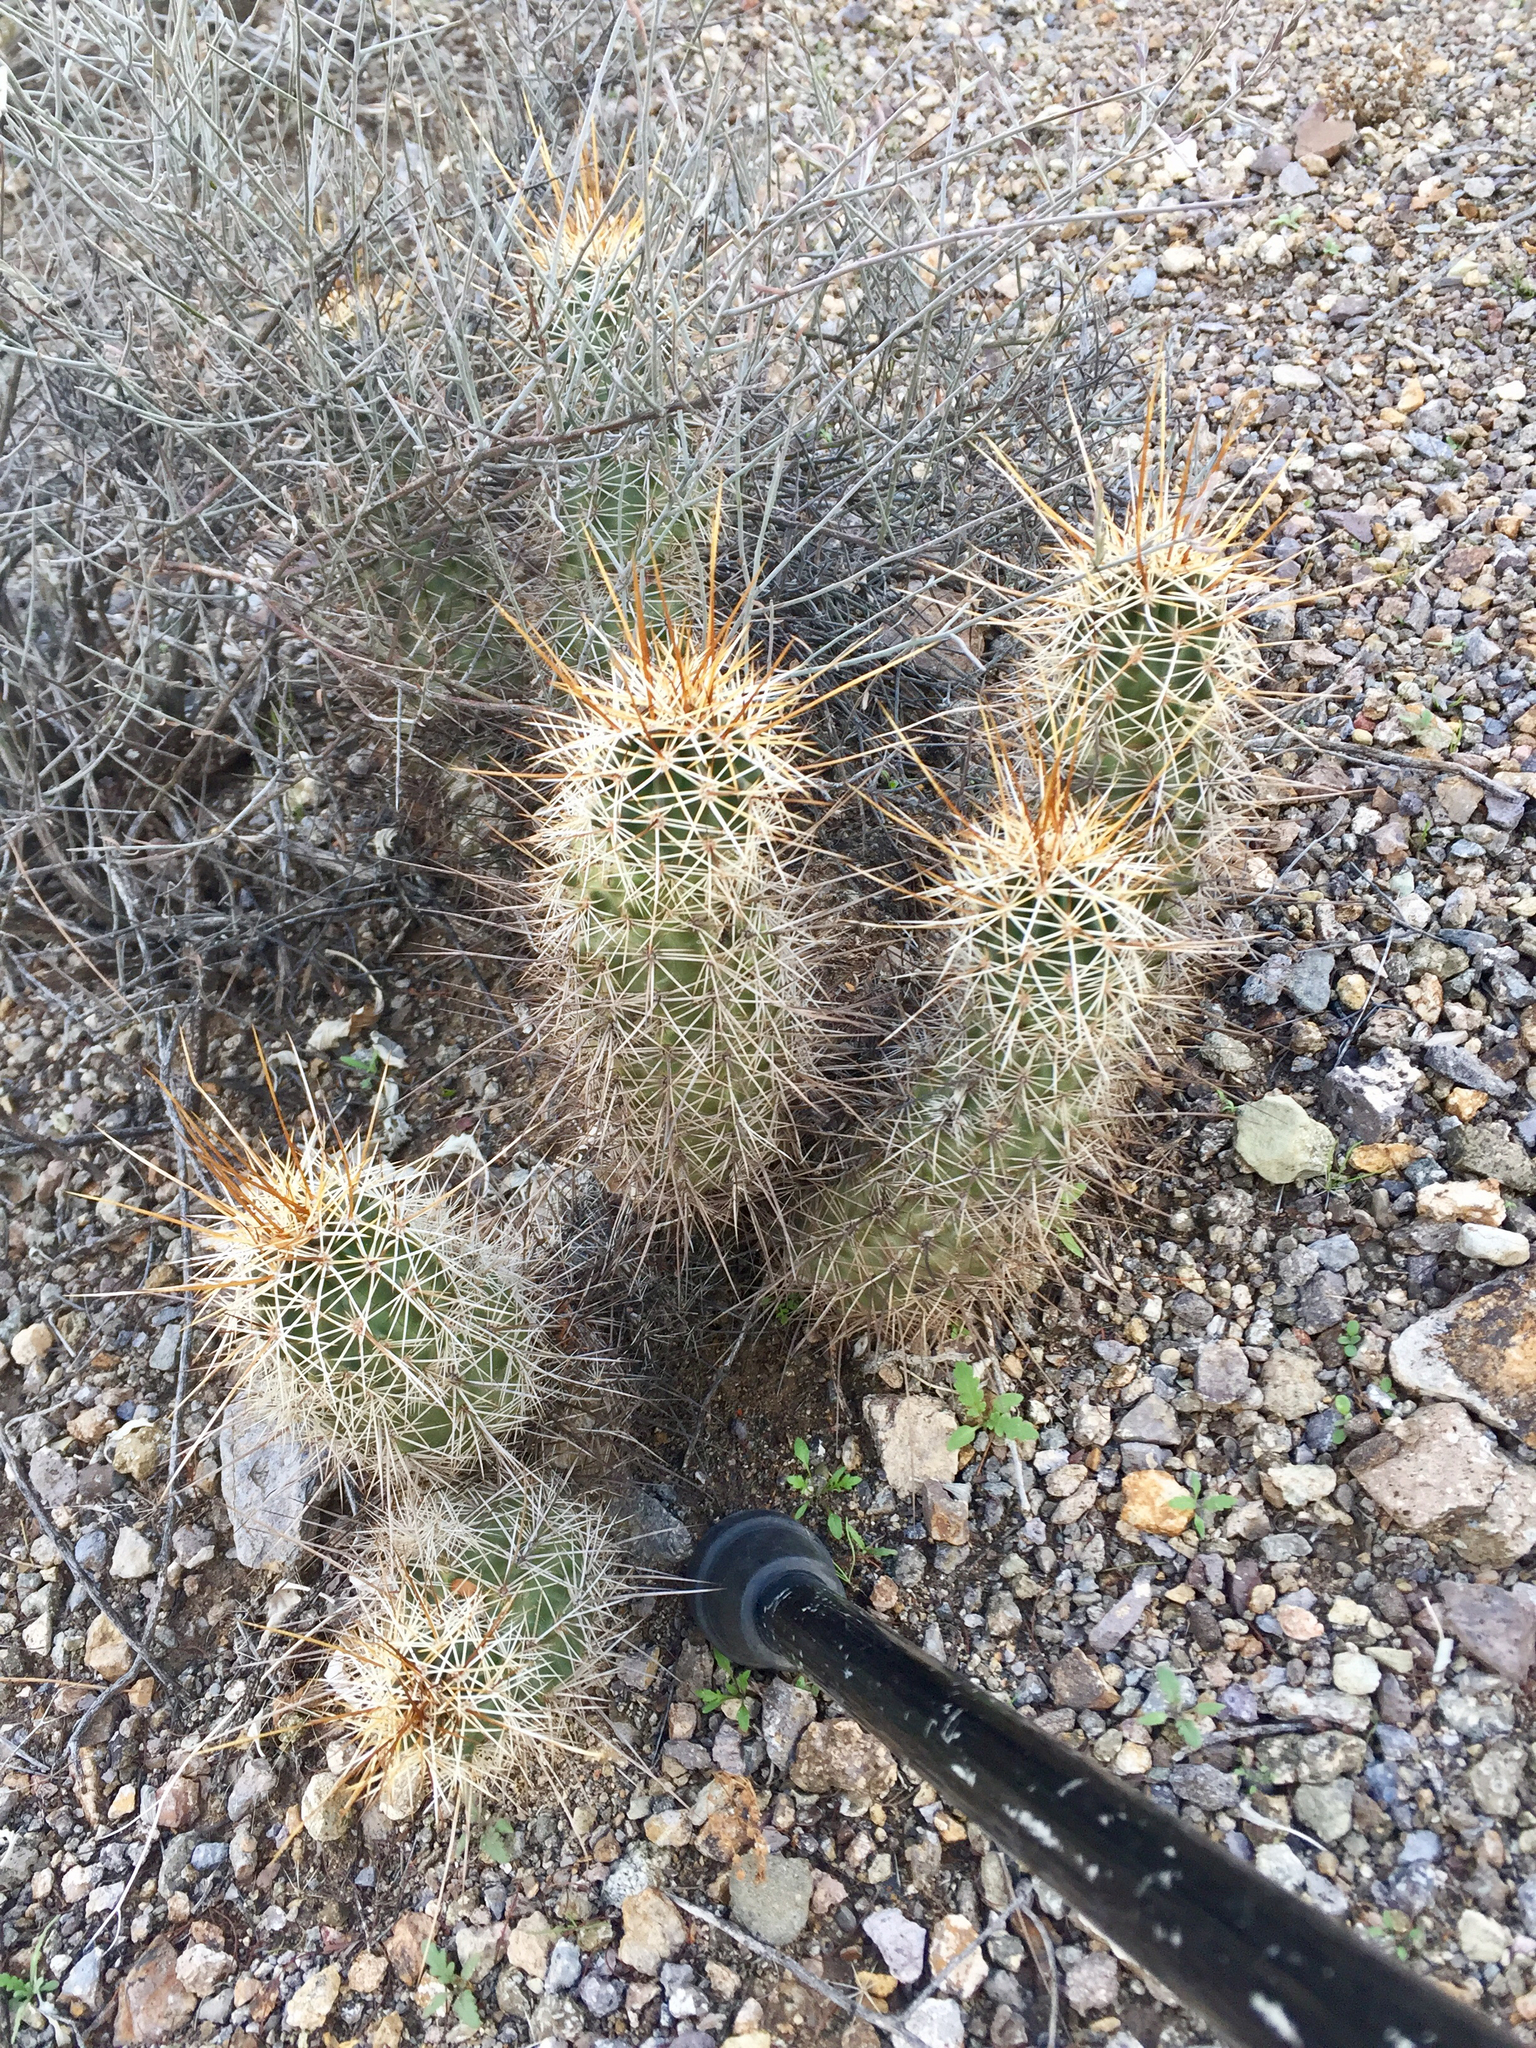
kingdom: Plantae
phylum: Tracheophyta
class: Magnoliopsida
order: Caryophyllales
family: Cactaceae
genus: Echinocereus
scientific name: Echinocereus fasciculatus
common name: Bundle hedgehog
